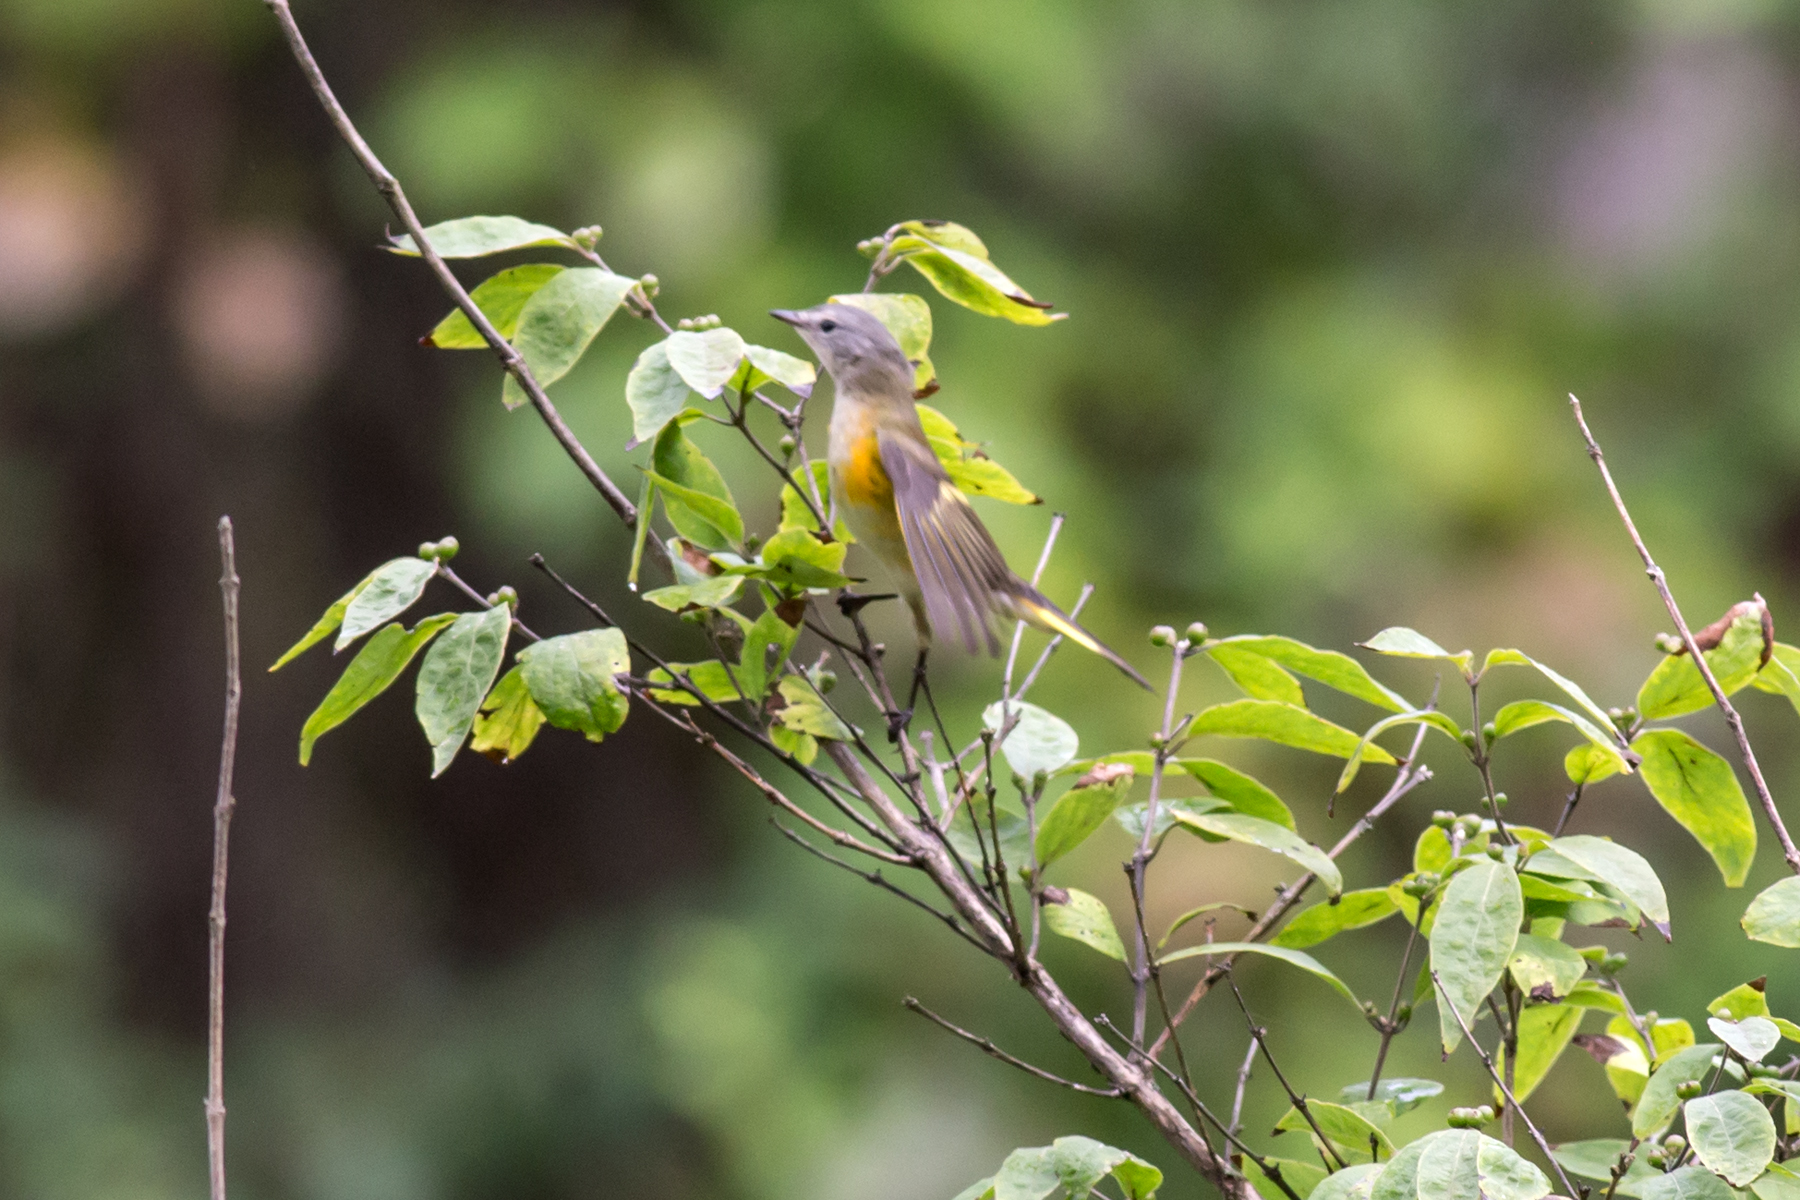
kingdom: Animalia
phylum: Chordata
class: Aves
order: Passeriformes
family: Parulidae
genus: Setophaga
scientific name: Setophaga ruticilla
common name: American redstart
